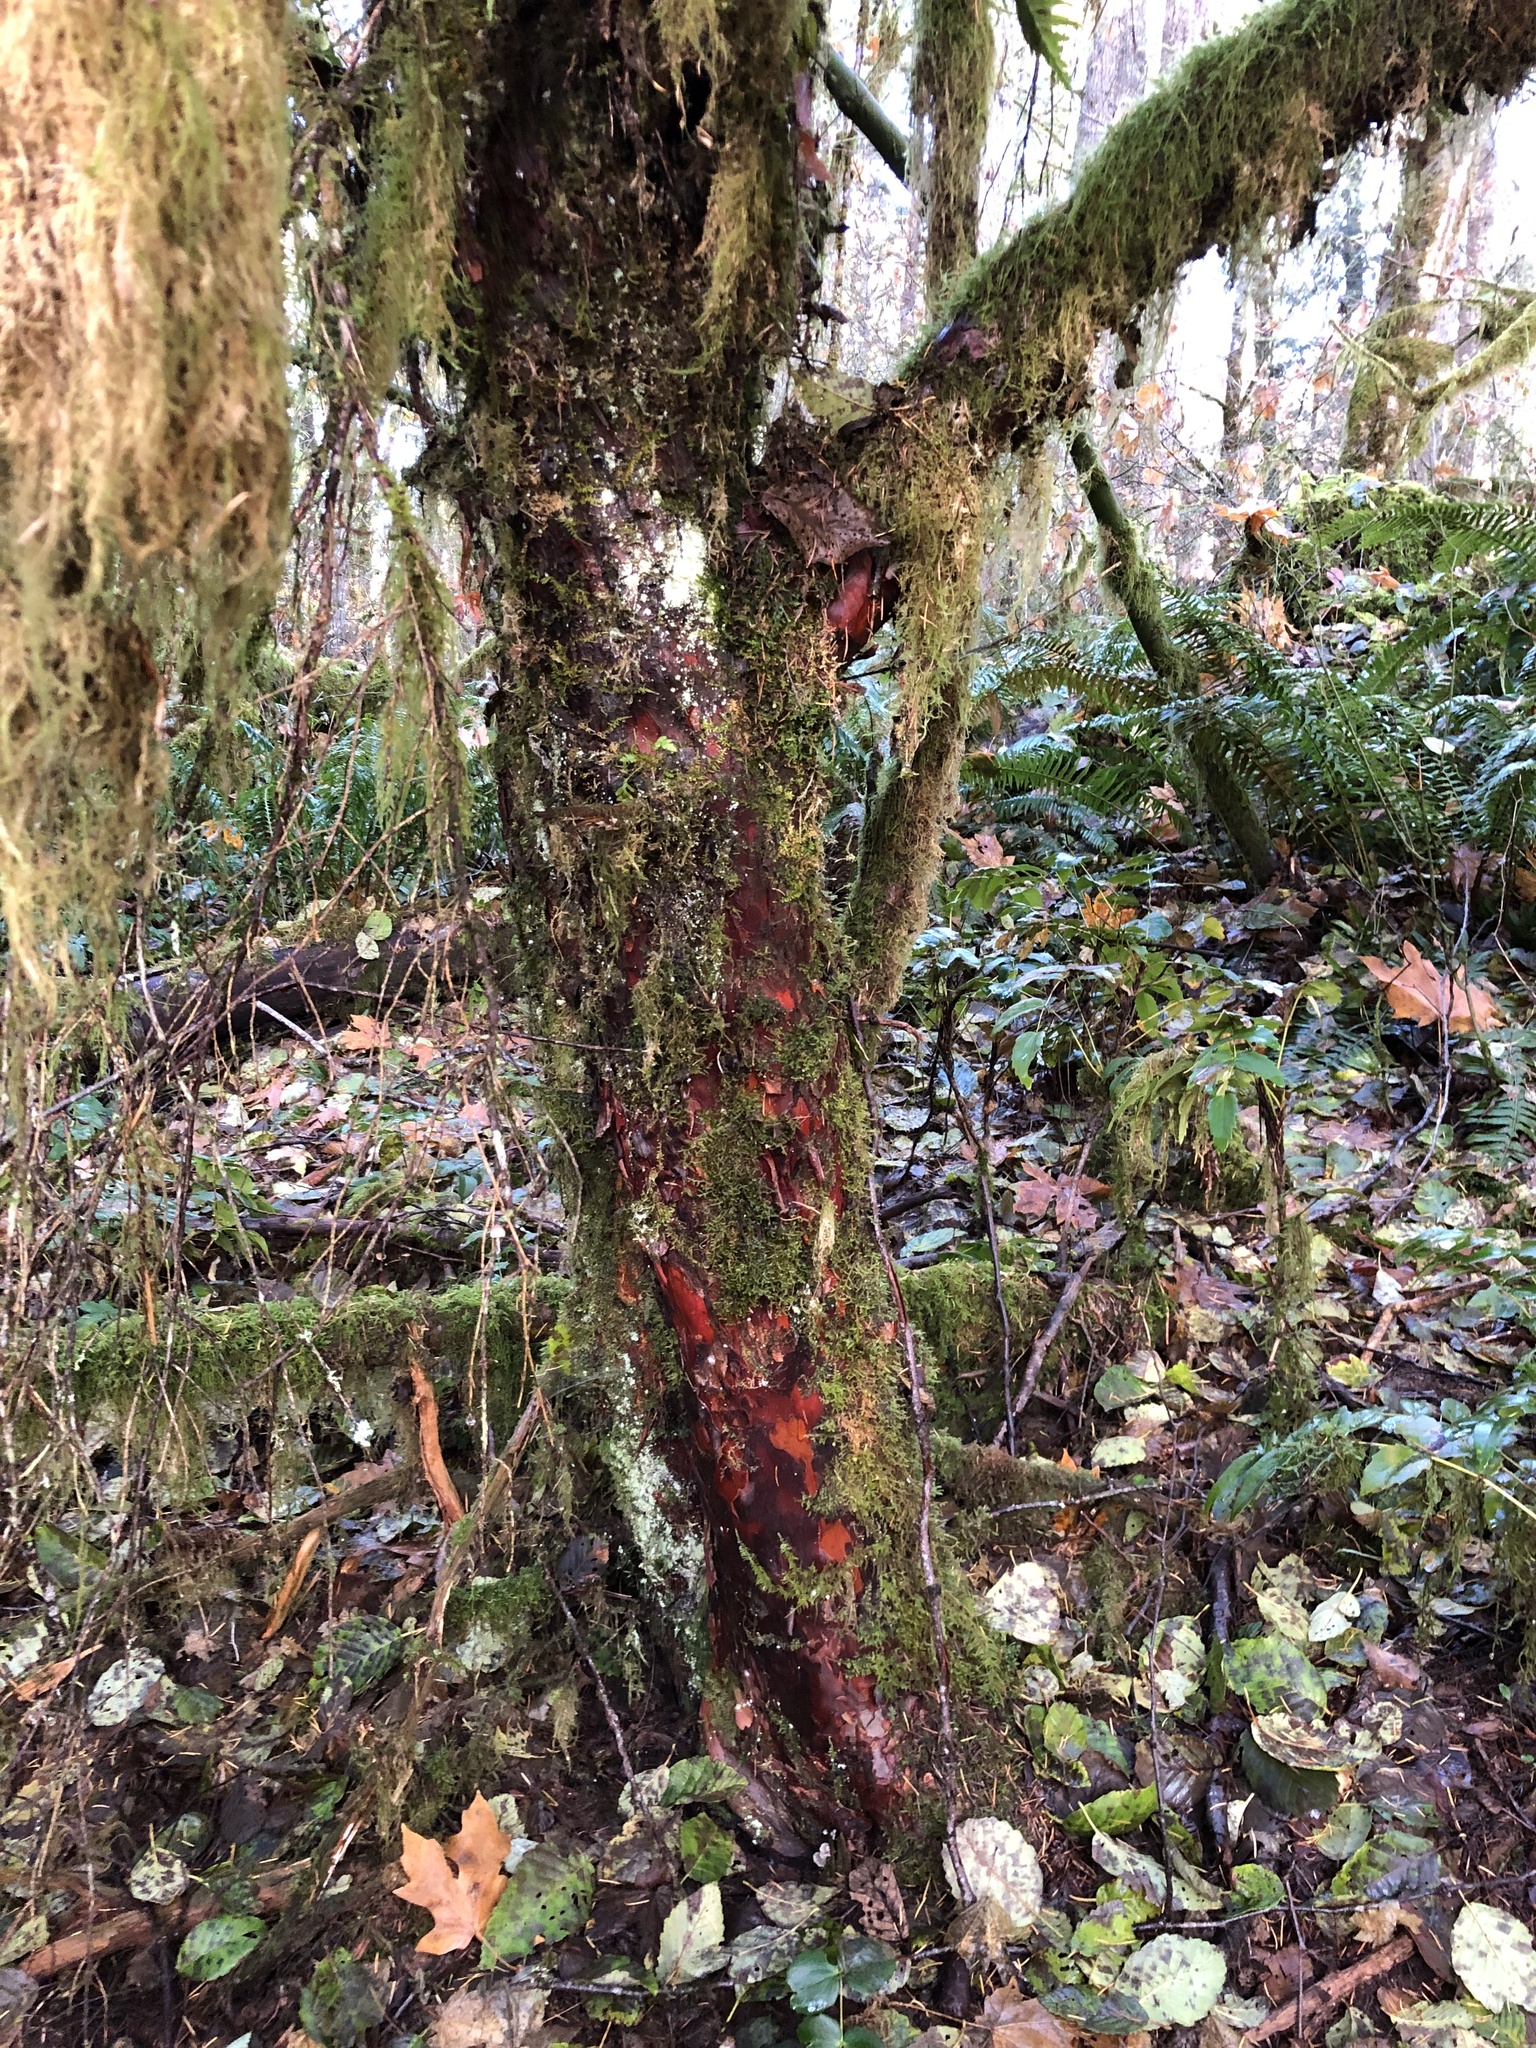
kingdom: Plantae
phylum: Tracheophyta
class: Pinopsida
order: Pinales
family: Taxaceae
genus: Taxus
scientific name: Taxus brevifolia
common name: Pacific yew
